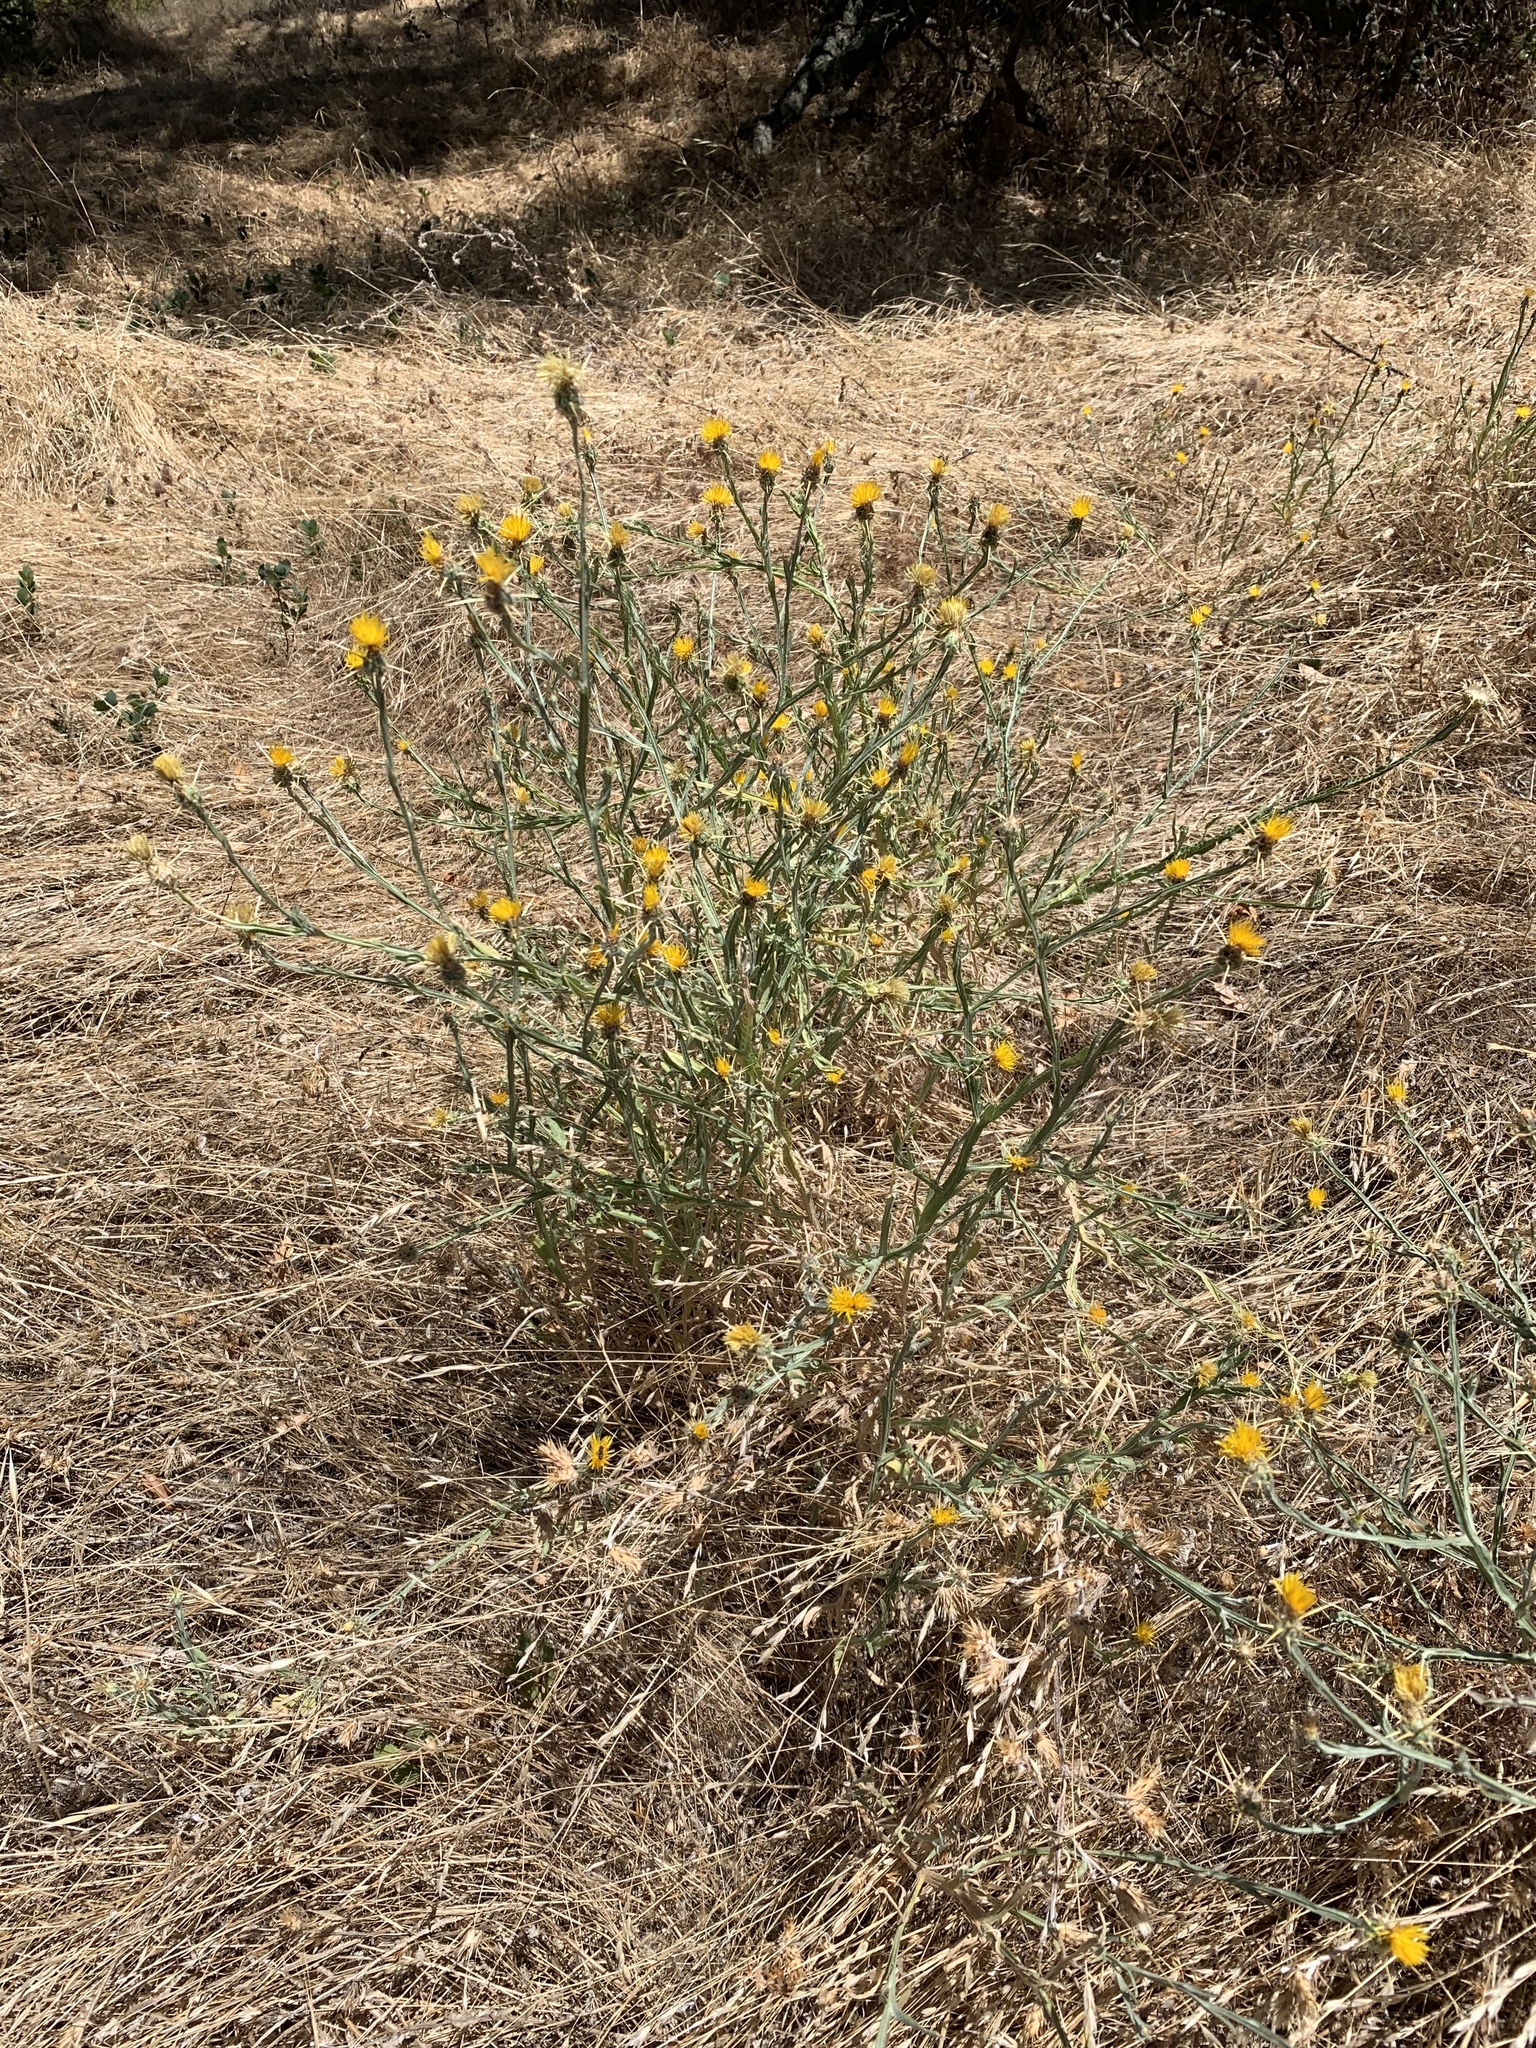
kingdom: Plantae
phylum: Tracheophyta
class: Magnoliopsida
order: Asterales
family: Asteraceae
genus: Centaurea
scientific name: Centaurea solstitialis
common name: Yellow star-thistle
